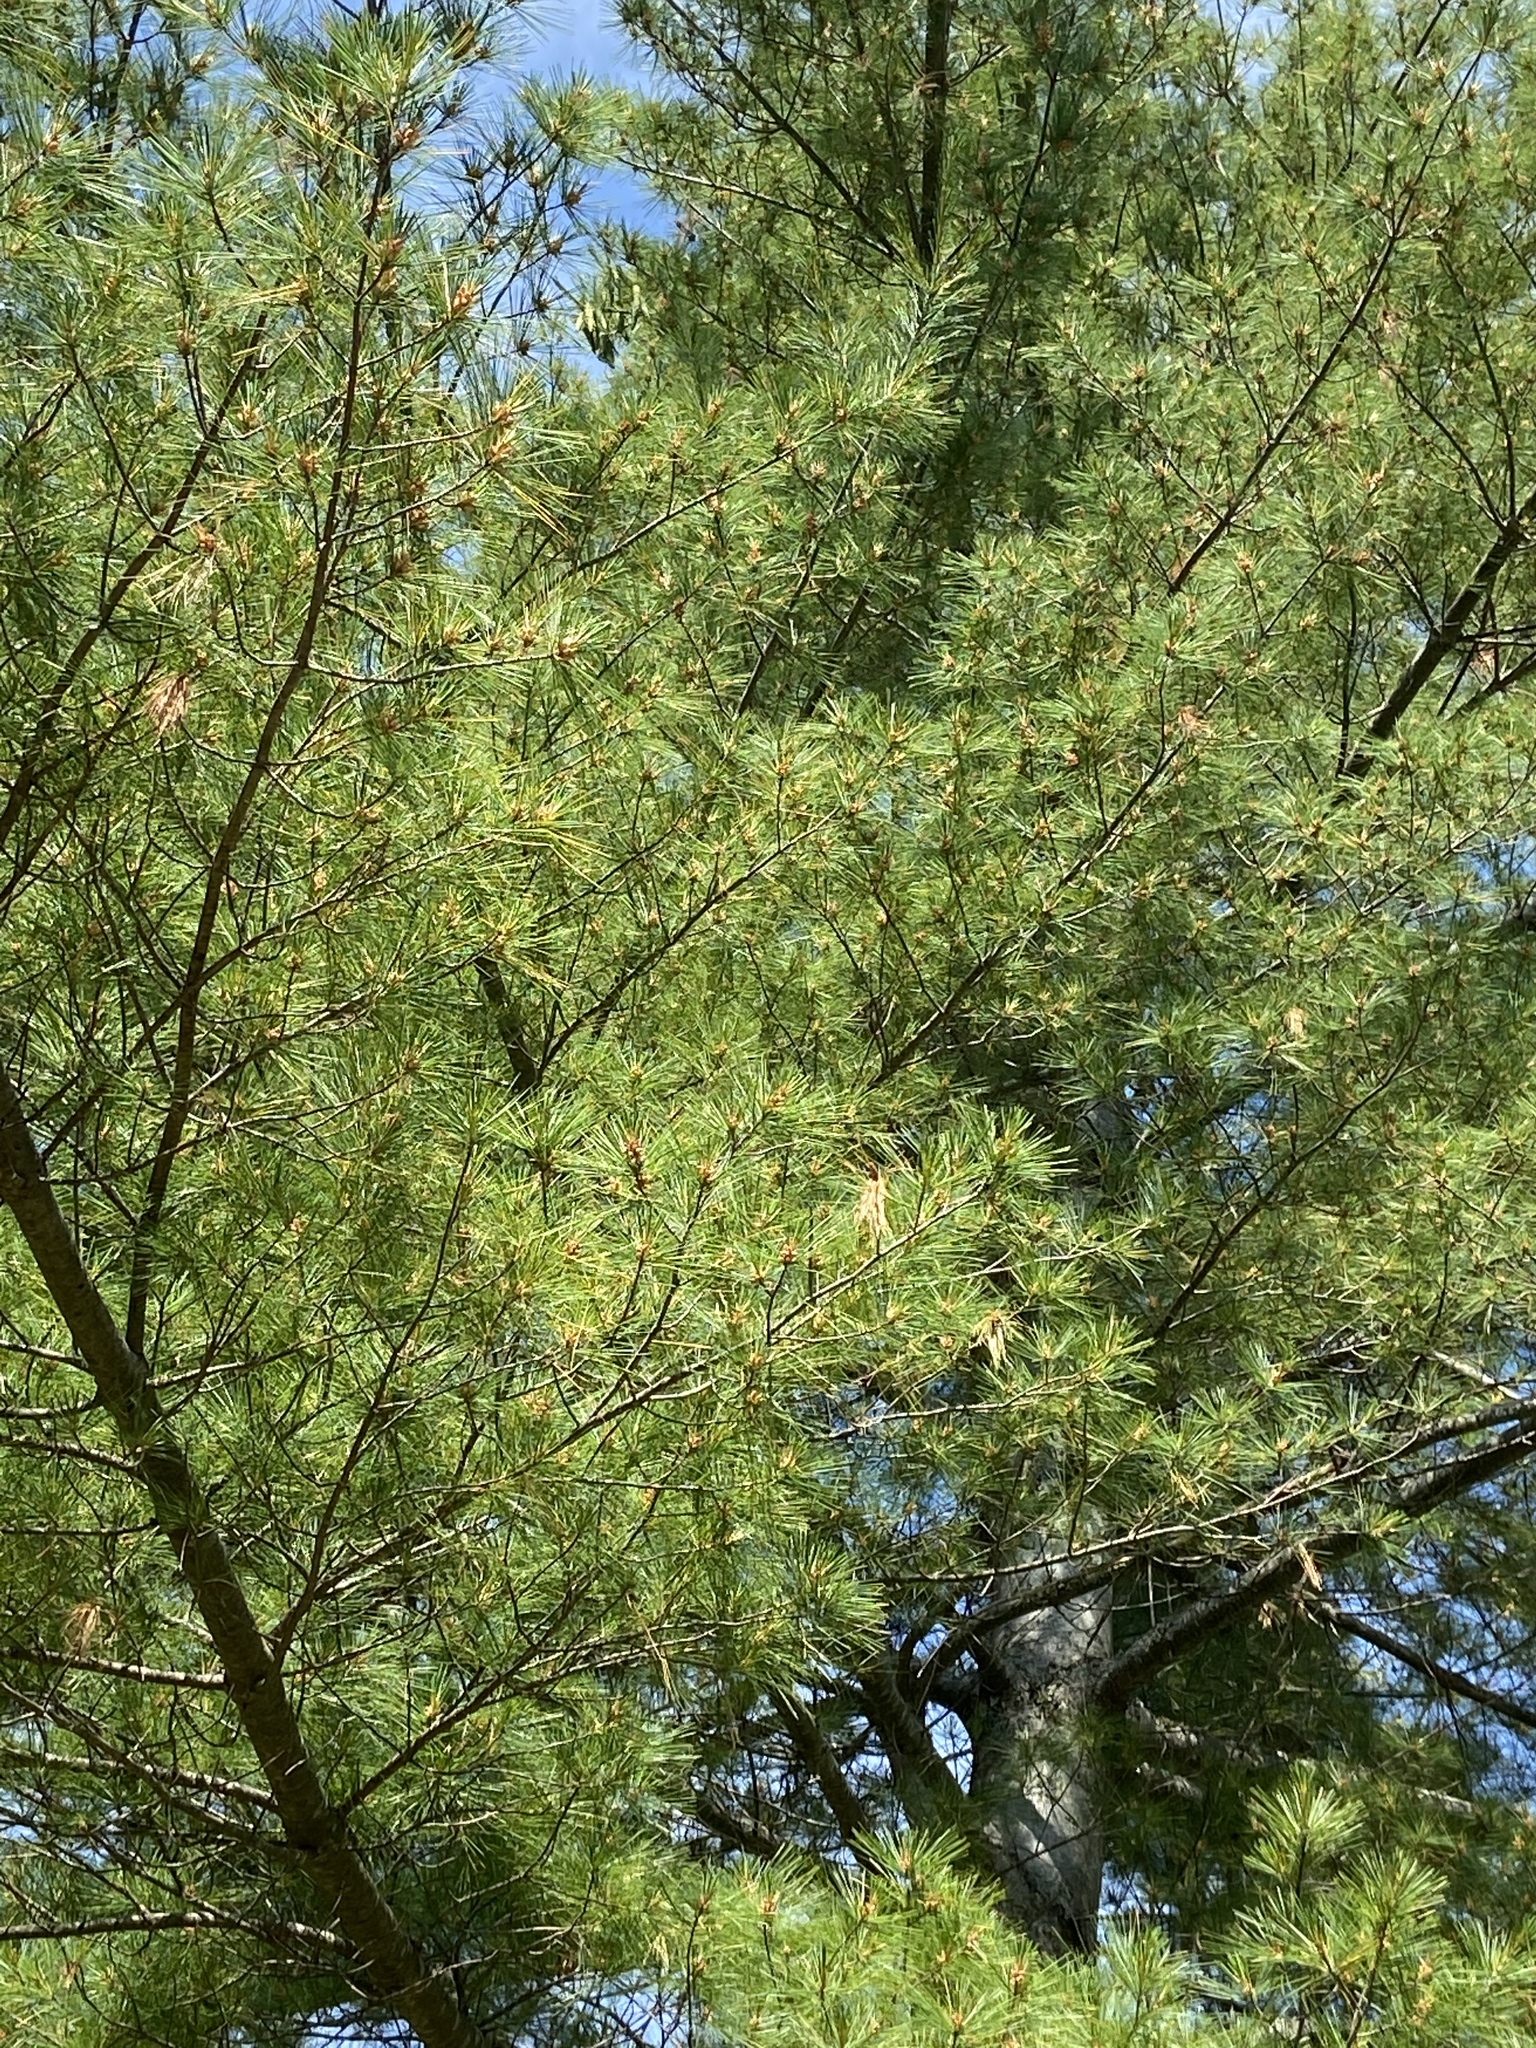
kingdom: Plantae
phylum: Tracheophyta
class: Pinopsida
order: Pinales
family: Pinaceae
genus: Pinus
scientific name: Pinus strobus
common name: Weymouth pine
